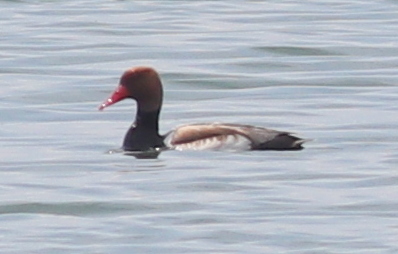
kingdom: Animalia
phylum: Chordata
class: Aves
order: Anseriformes
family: Anatidae
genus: Netta
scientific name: Netta rufina
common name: Red-crested pochard
